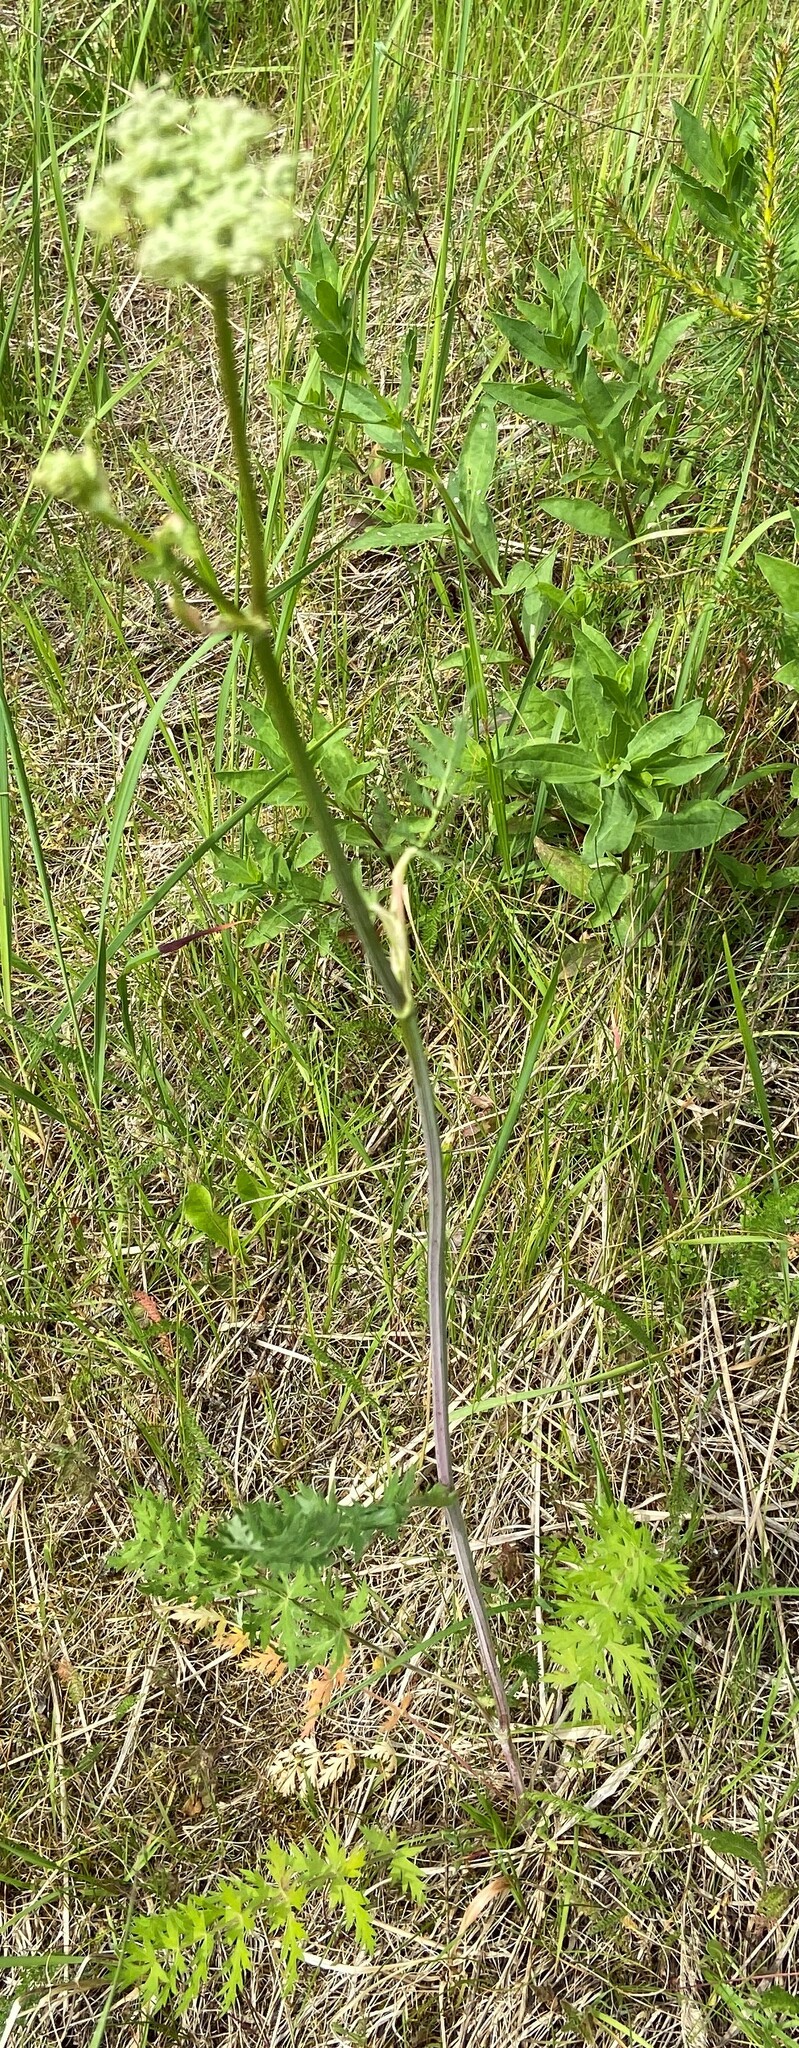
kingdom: Plantae
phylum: Tracheophyta
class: Magnoliopsida
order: Apiales
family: Apiaceae
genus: Seseli
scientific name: Seseli libanotis
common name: Mooncarrot
